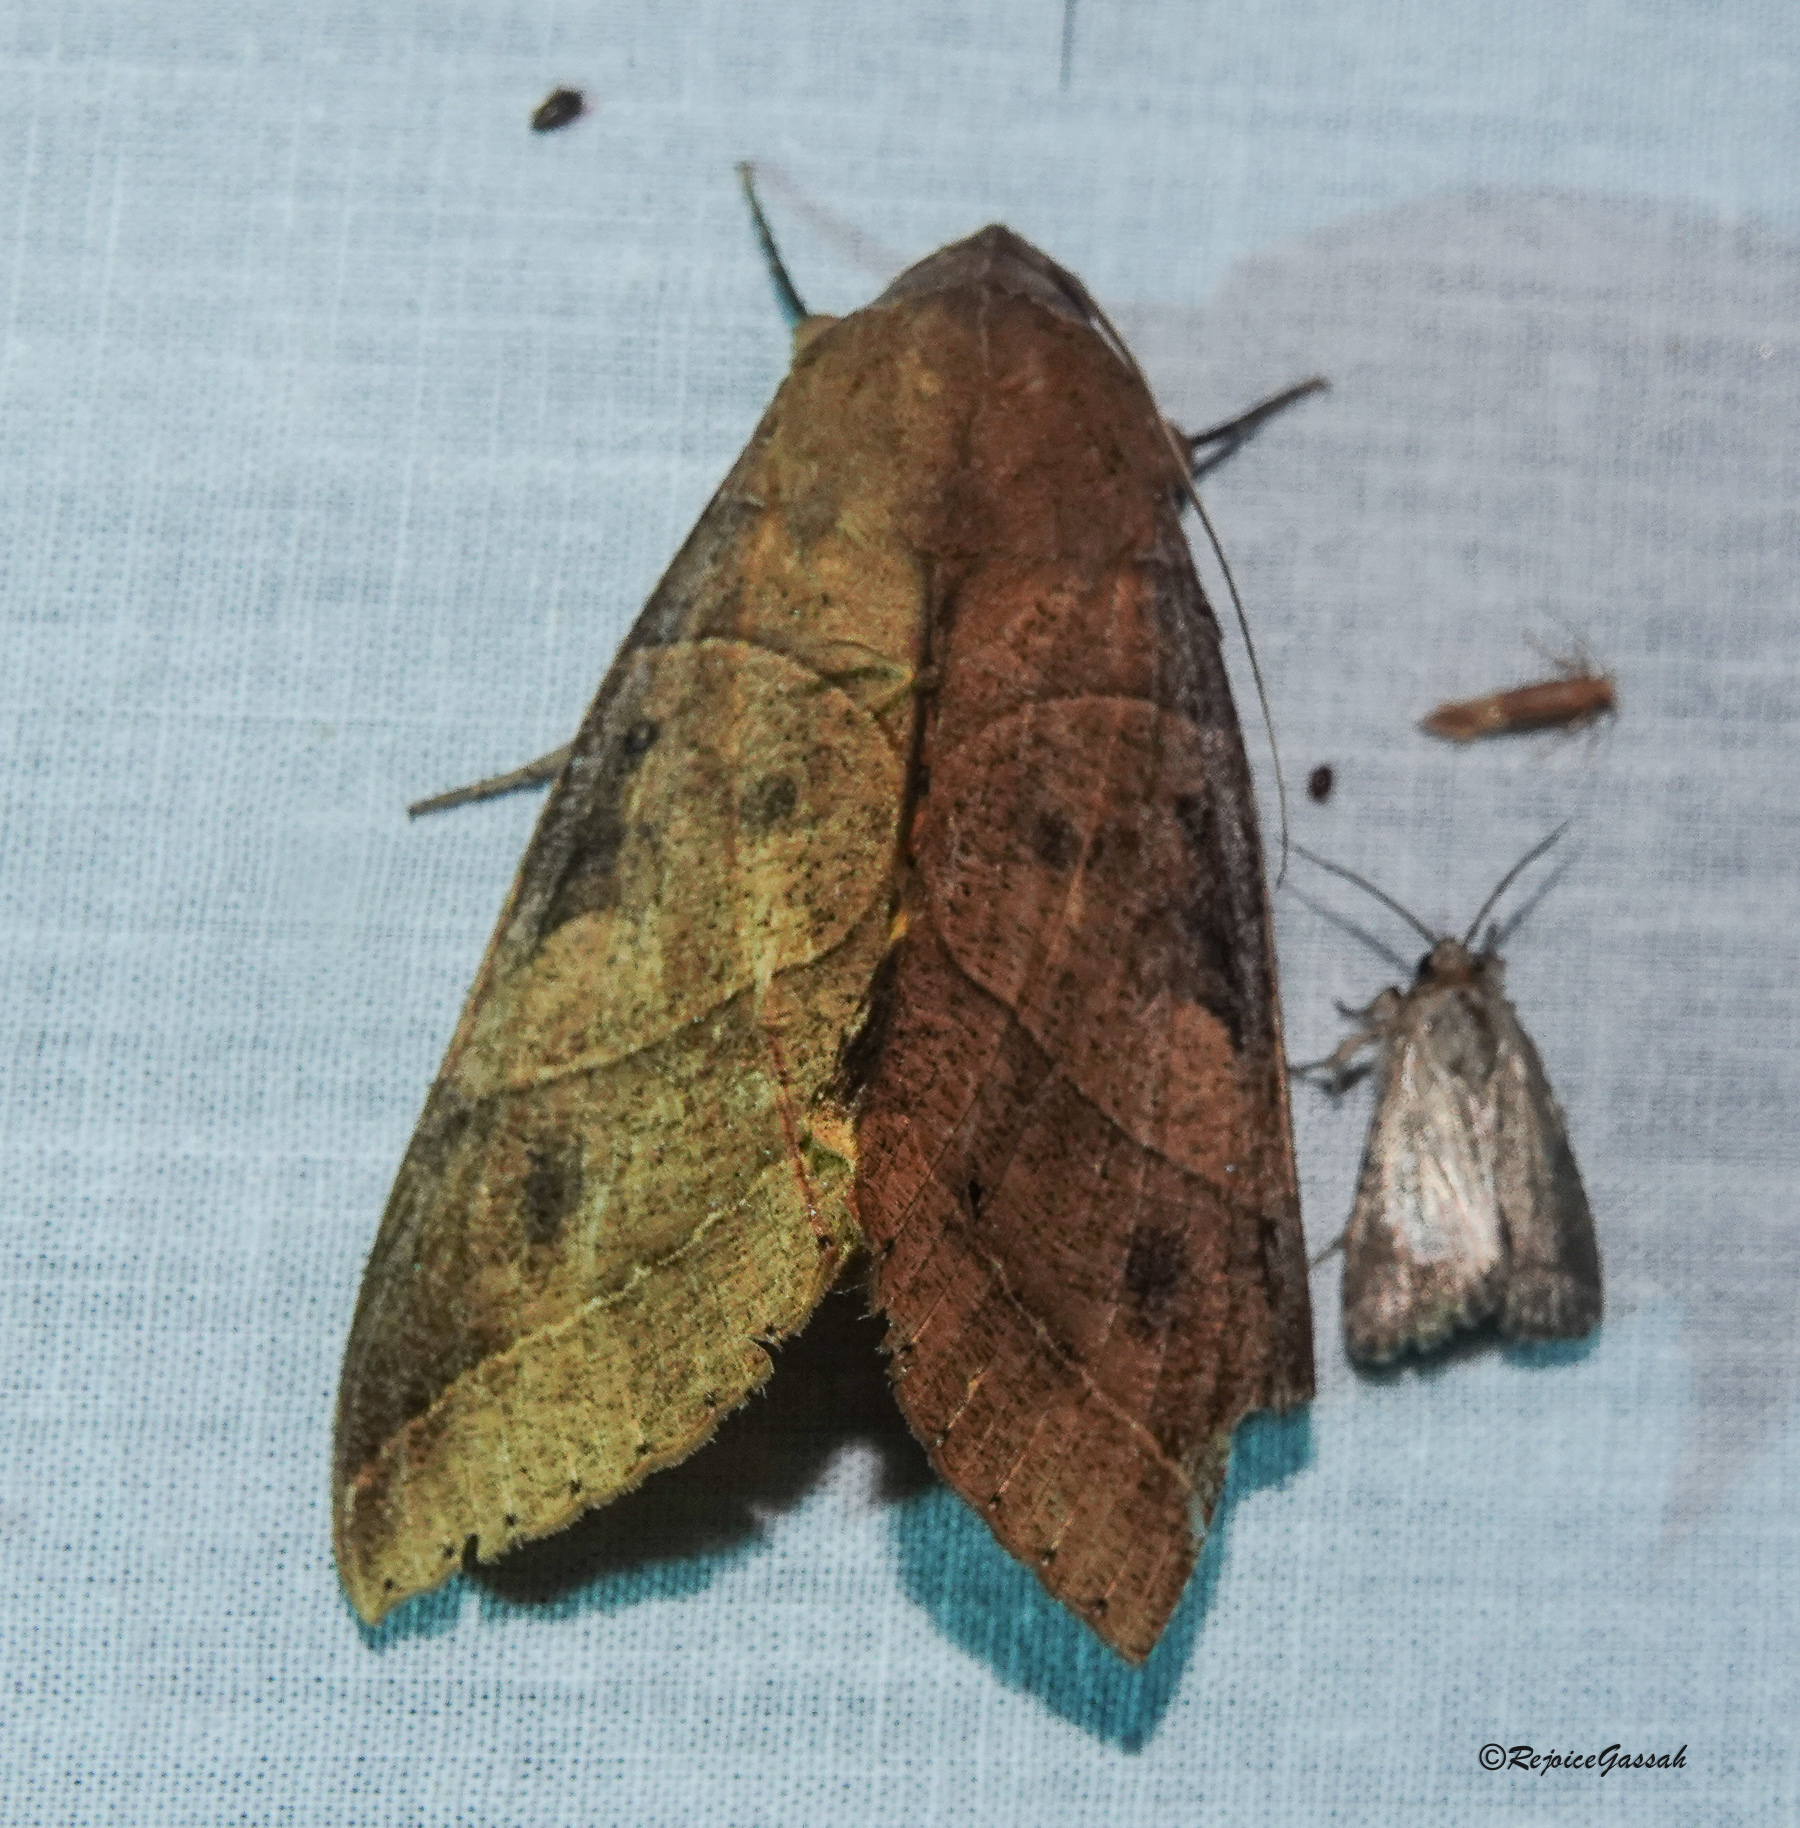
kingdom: Animalia
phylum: Arthropoda
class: Insecta
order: Lepidoptera
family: Erebidae
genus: Thyas
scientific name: Thyas coronata
